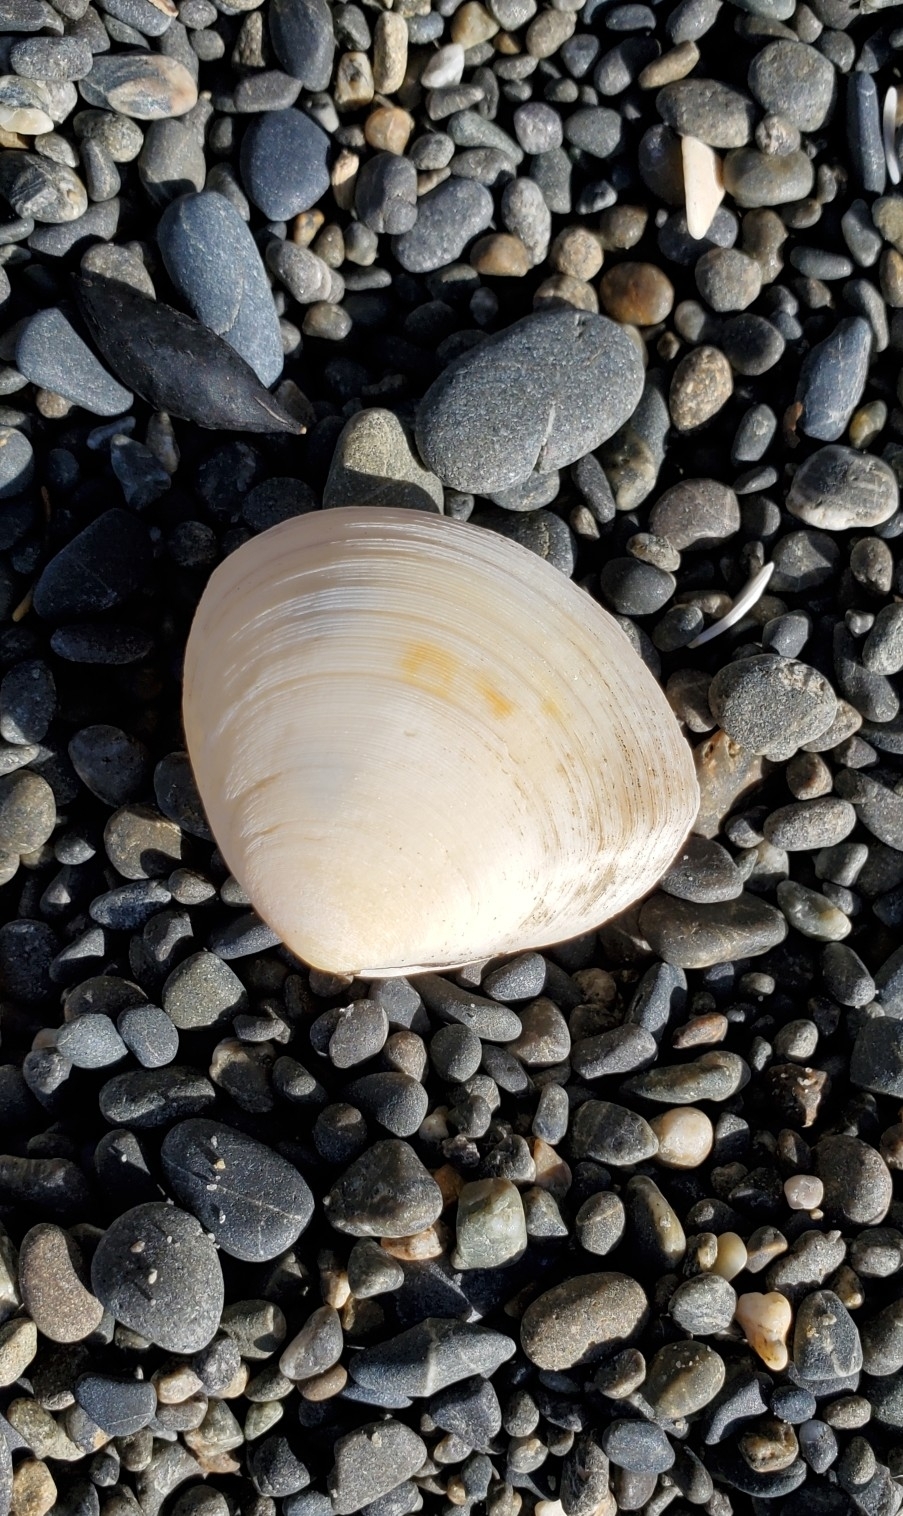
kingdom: Animalia
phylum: Mollusca
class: Bivalvia
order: Cardiida
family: Tellinidae
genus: Pseudarcopagia
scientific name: Pseudarcopagia disculus
